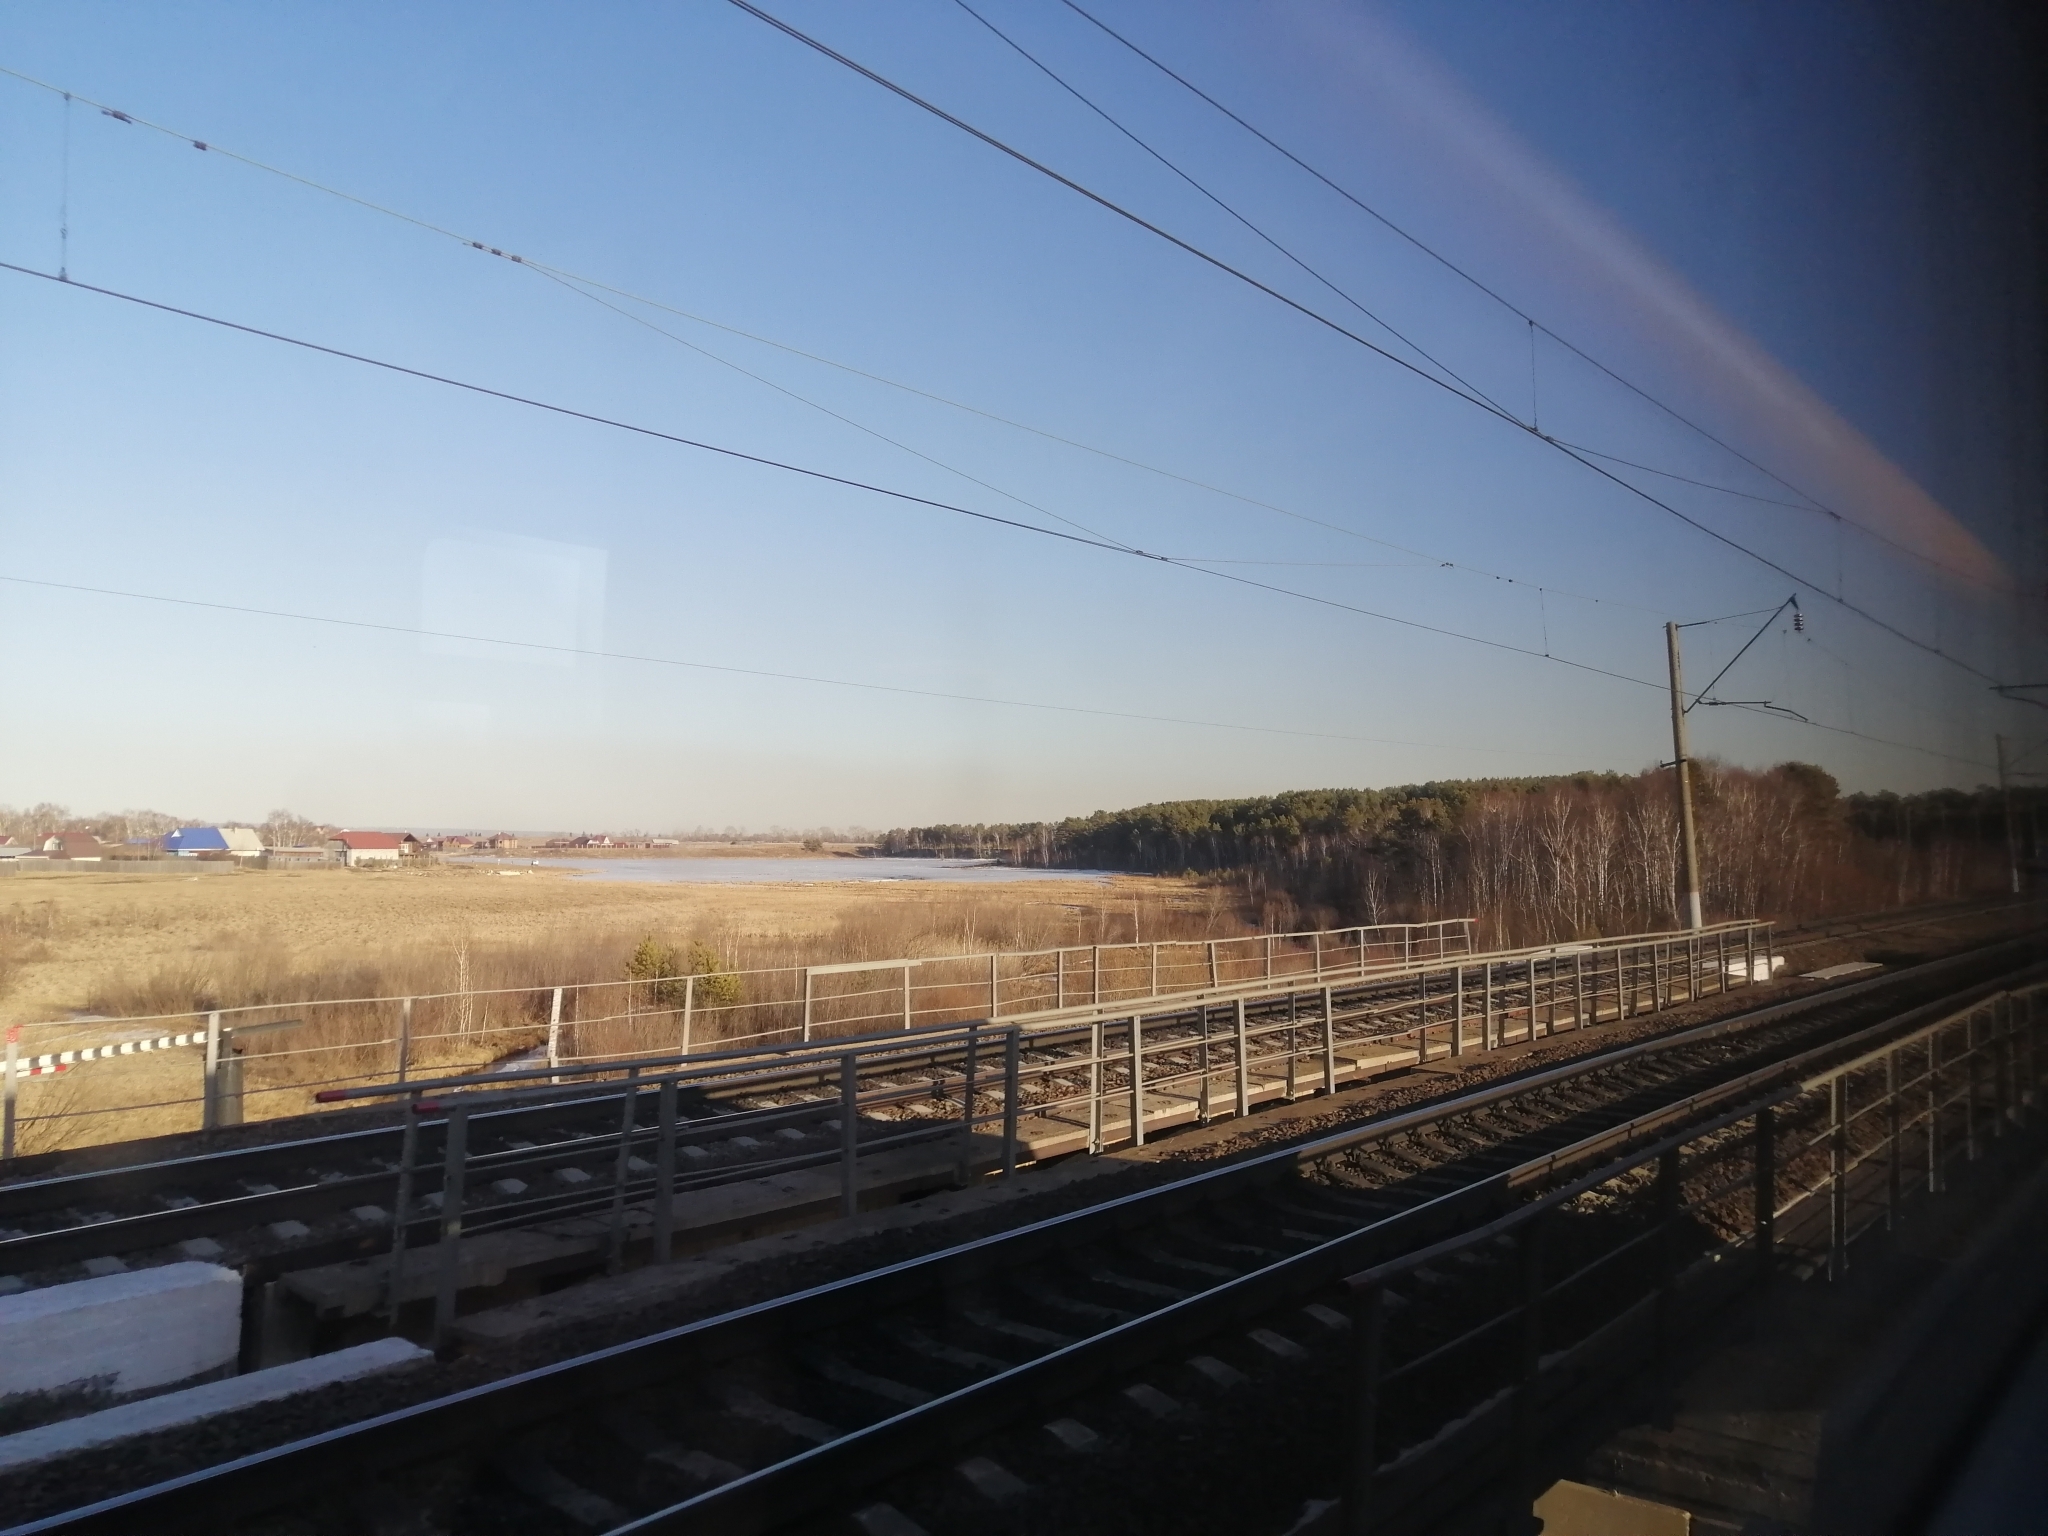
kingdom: Plantae
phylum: Tracheophyta
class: Pinopsida
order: Pinales
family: Pinaceae
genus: Pinus
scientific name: Pinus sylvestris
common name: Scots pine
